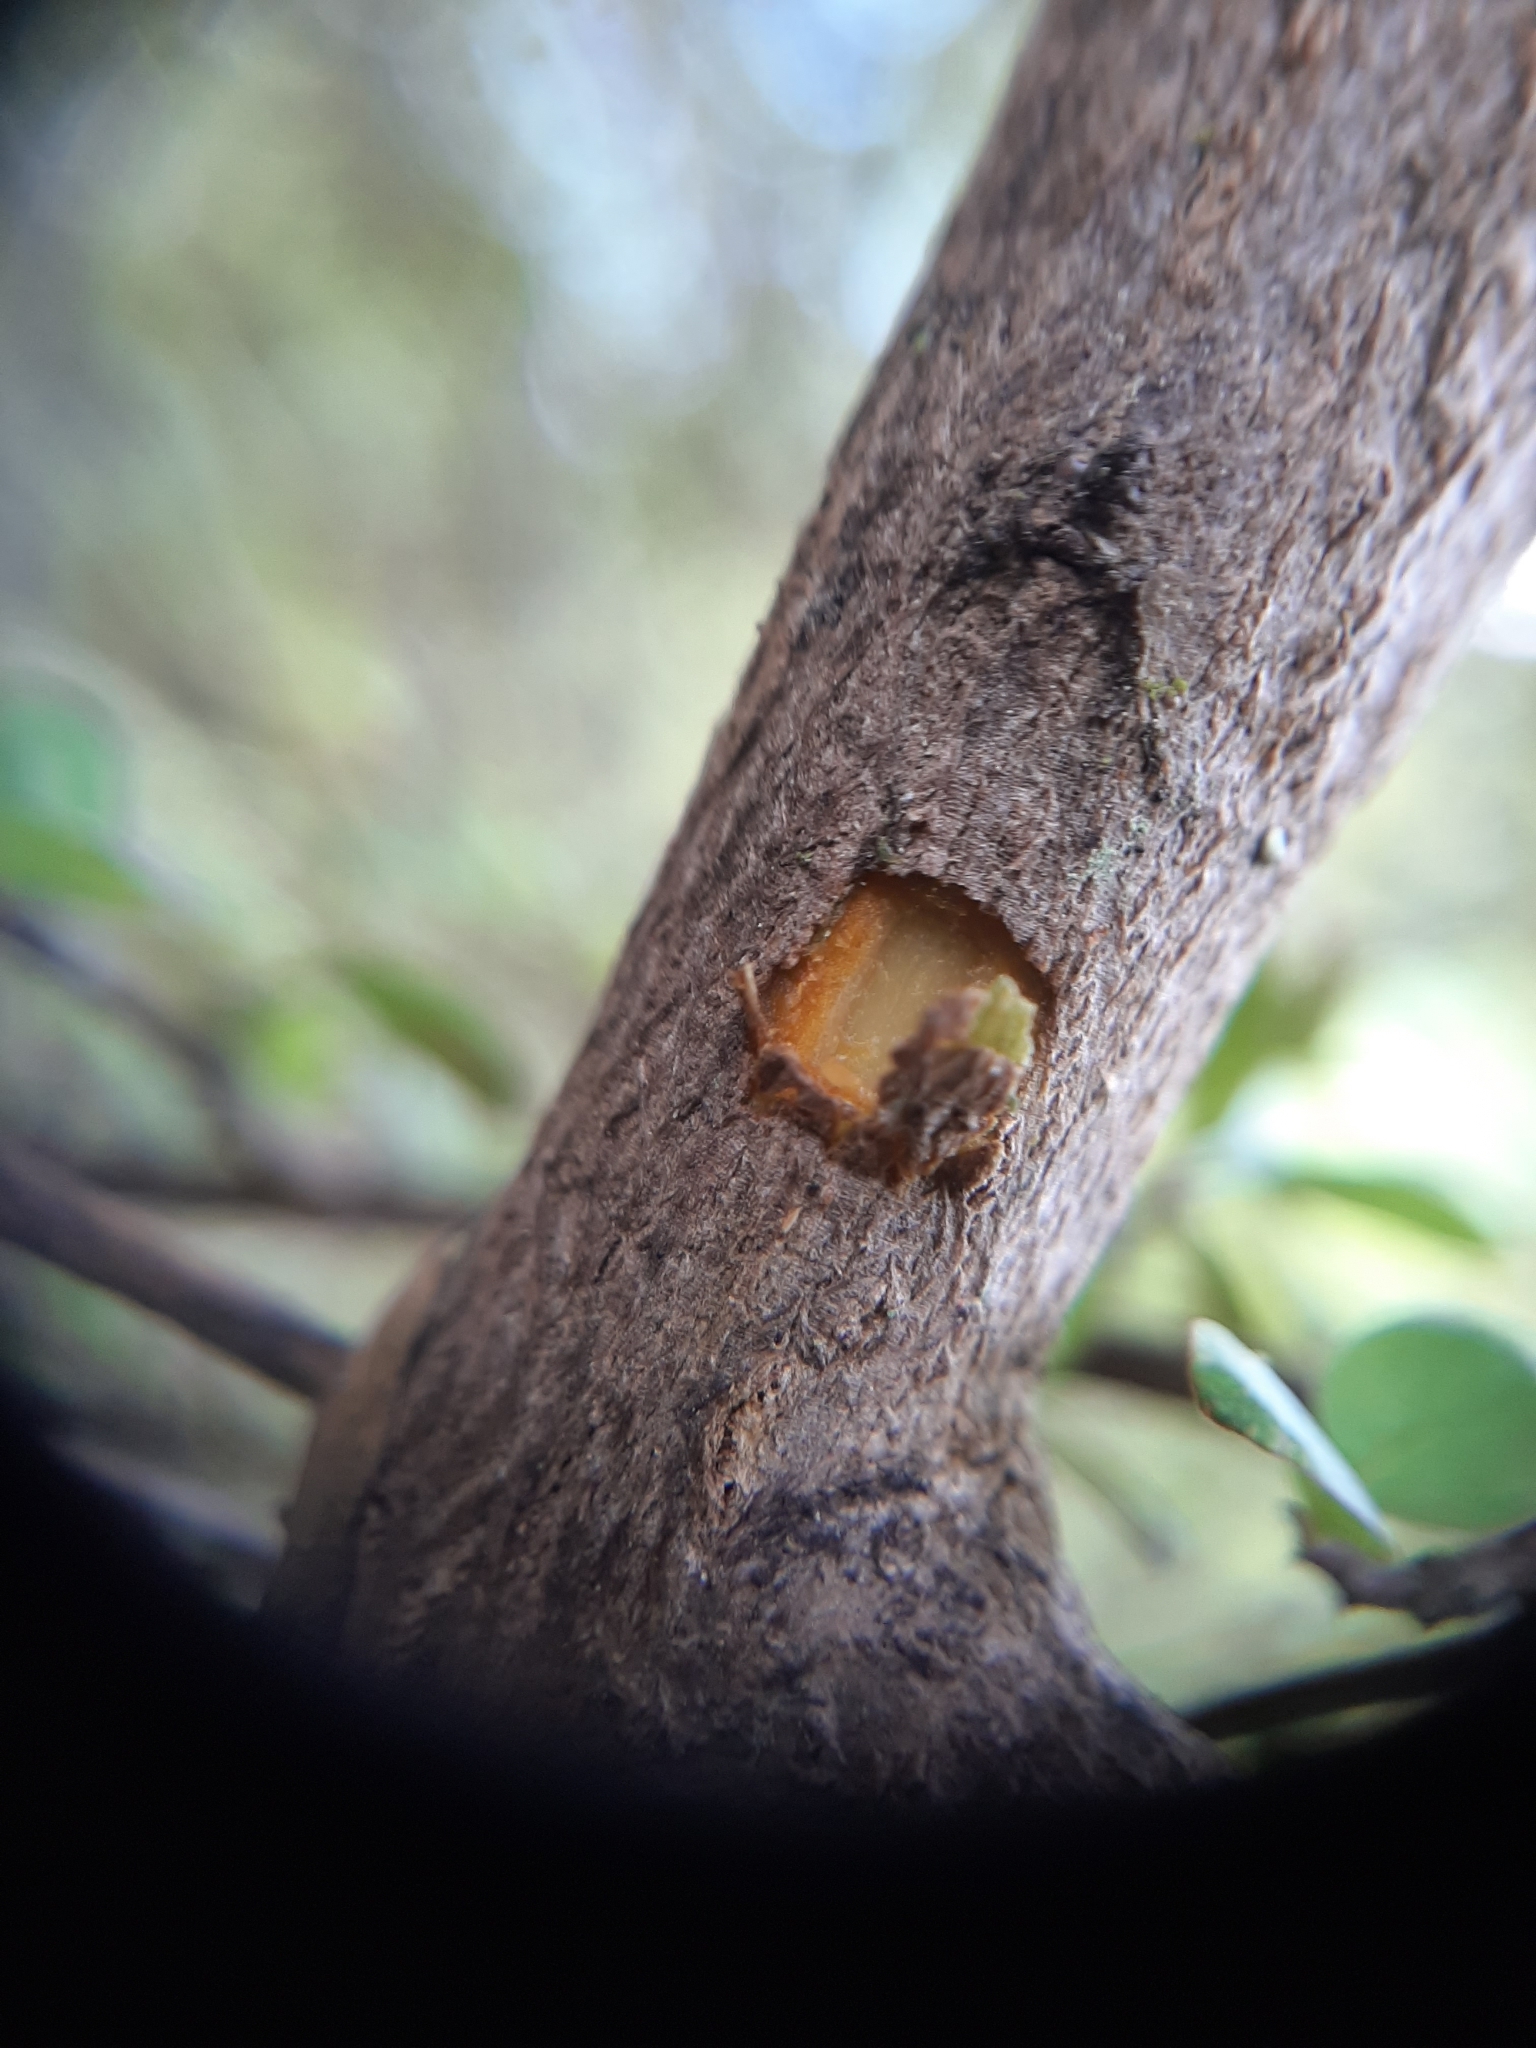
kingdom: Plantae
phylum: Tracheophyta
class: Magnoliopsida
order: Gentianales
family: Rubiaceae
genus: Coprosma
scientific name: Coprosma wallii
